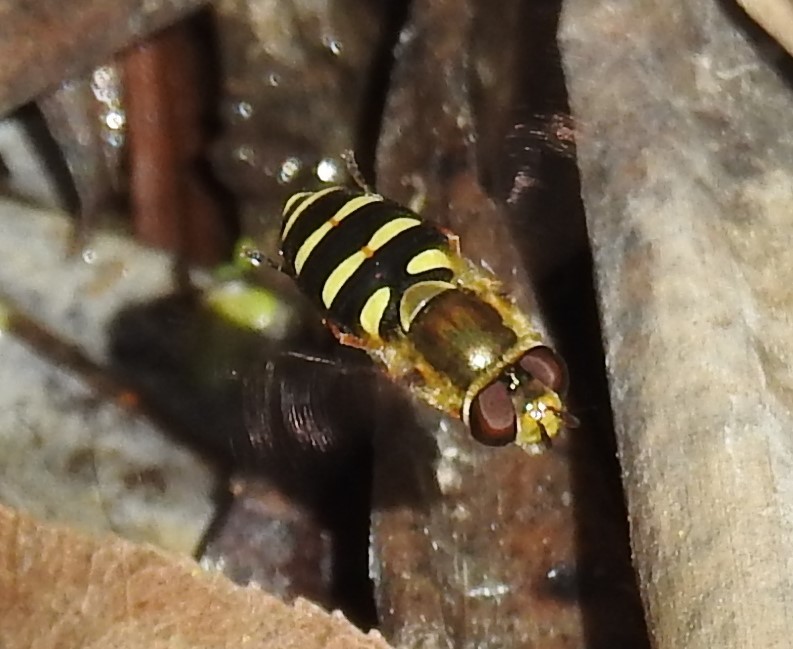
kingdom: Animalia
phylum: Arthropoda
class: Insecta
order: Diptera
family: Syrphidae
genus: Syrphus
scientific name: Syrphus opinator
